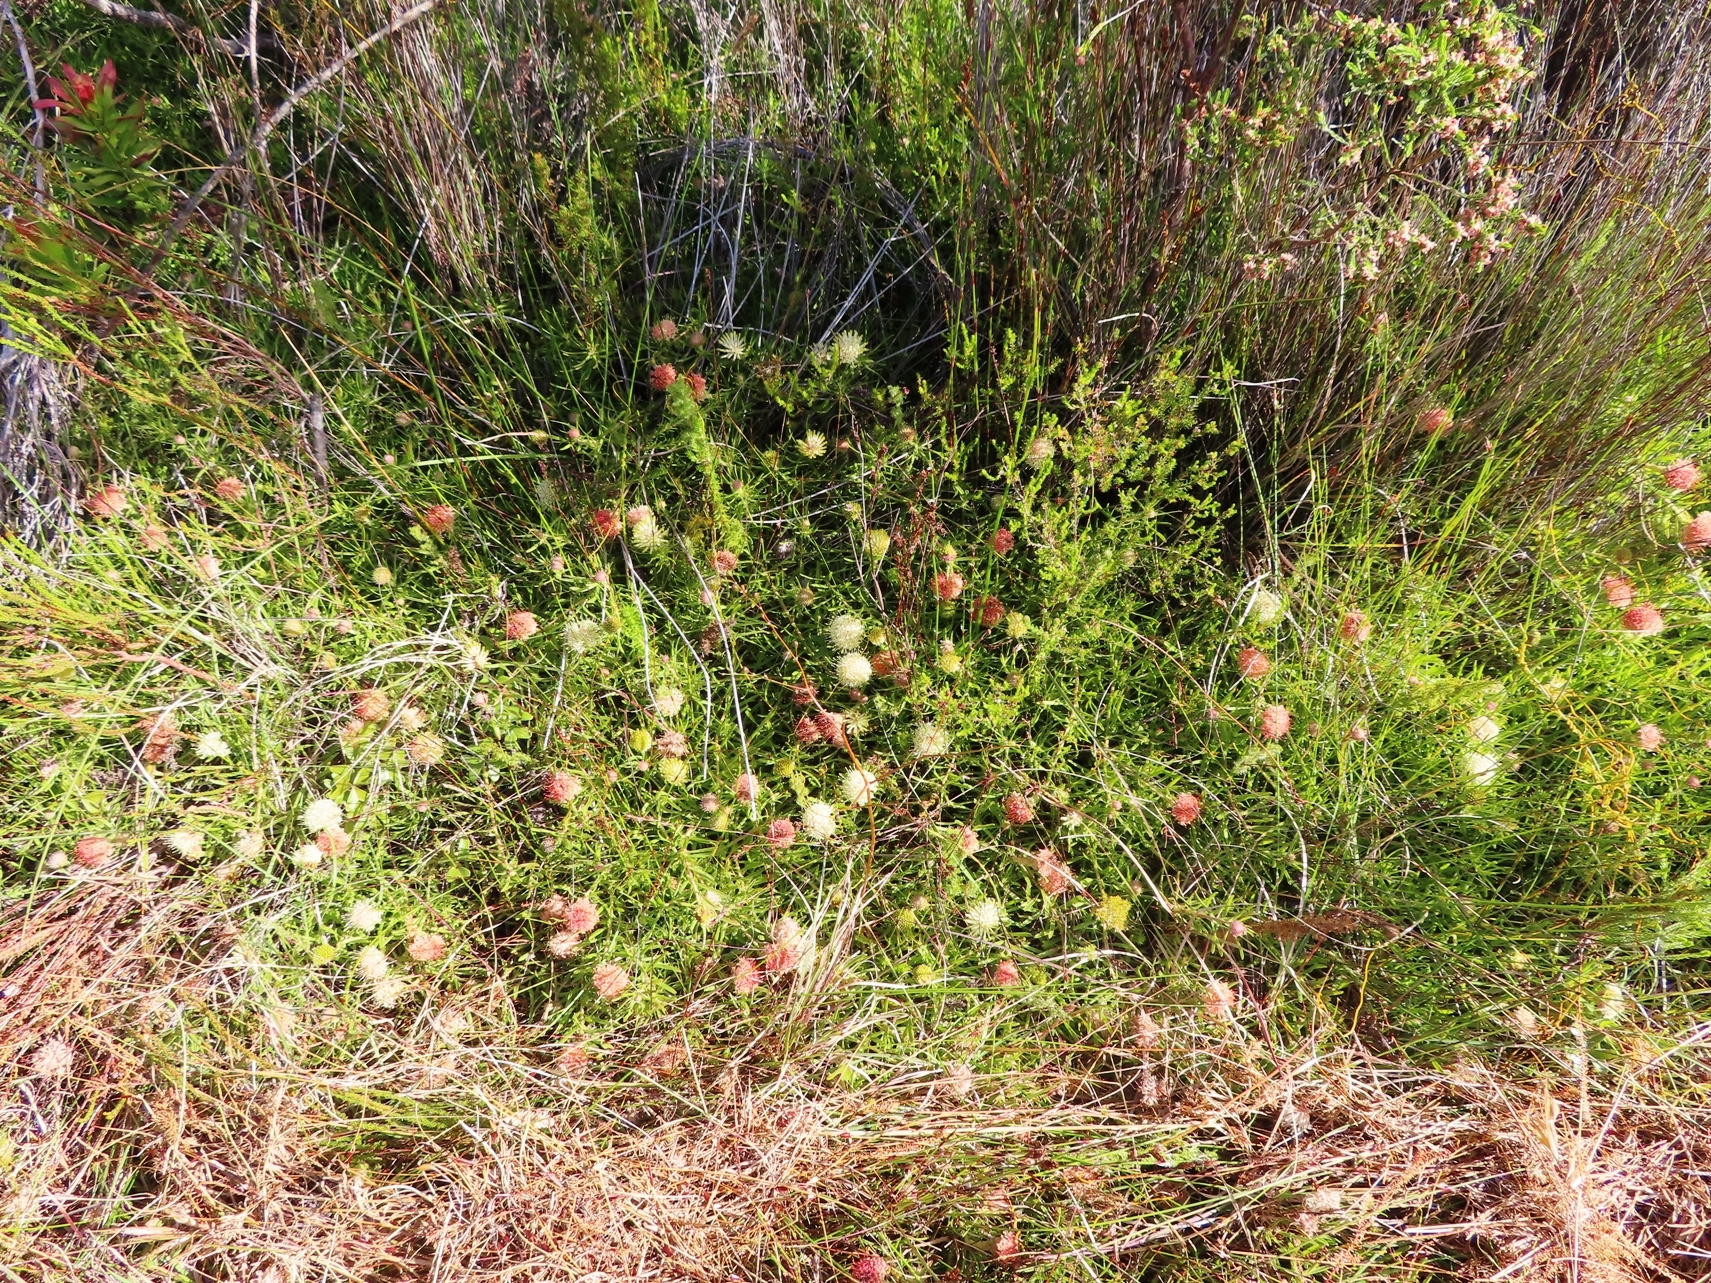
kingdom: Plantae
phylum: Tracheophyta
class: Magnoliopsida
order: Proteales
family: Proteaceae
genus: Leucospermum
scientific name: Leucospermum pedunculatum
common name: White-trailing pincushion
